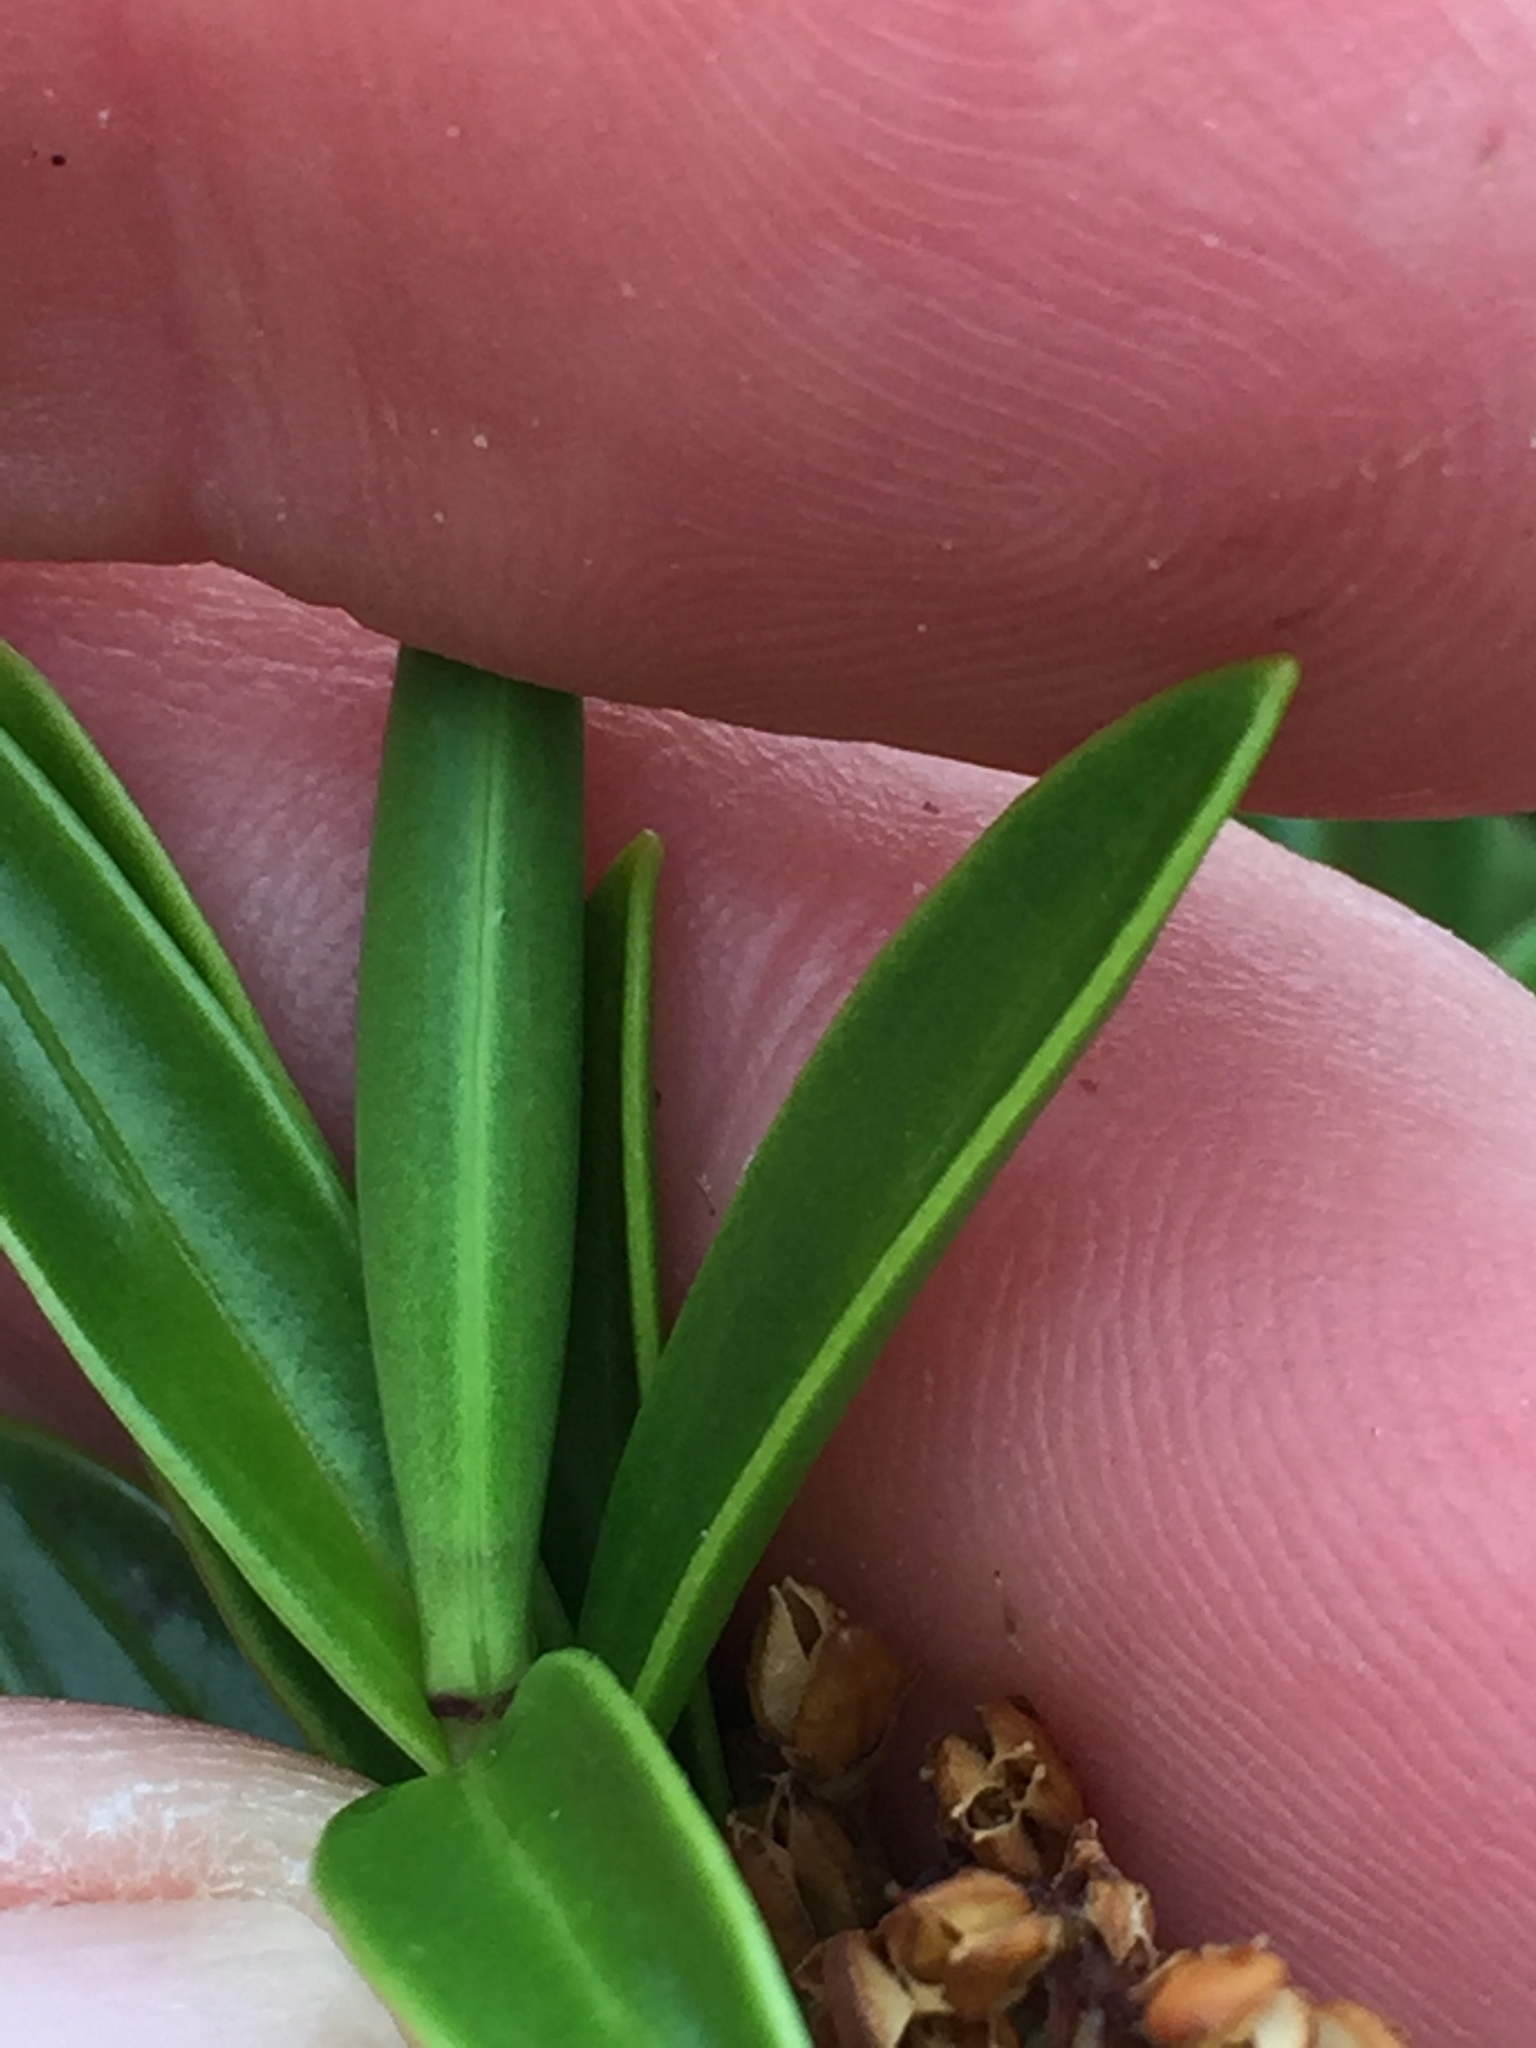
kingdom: Plantae
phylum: Tracheophyta
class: Magnoliopsida
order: Lamiales
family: Plantaginaceae
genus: Veronica
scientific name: Veronica subalpina
